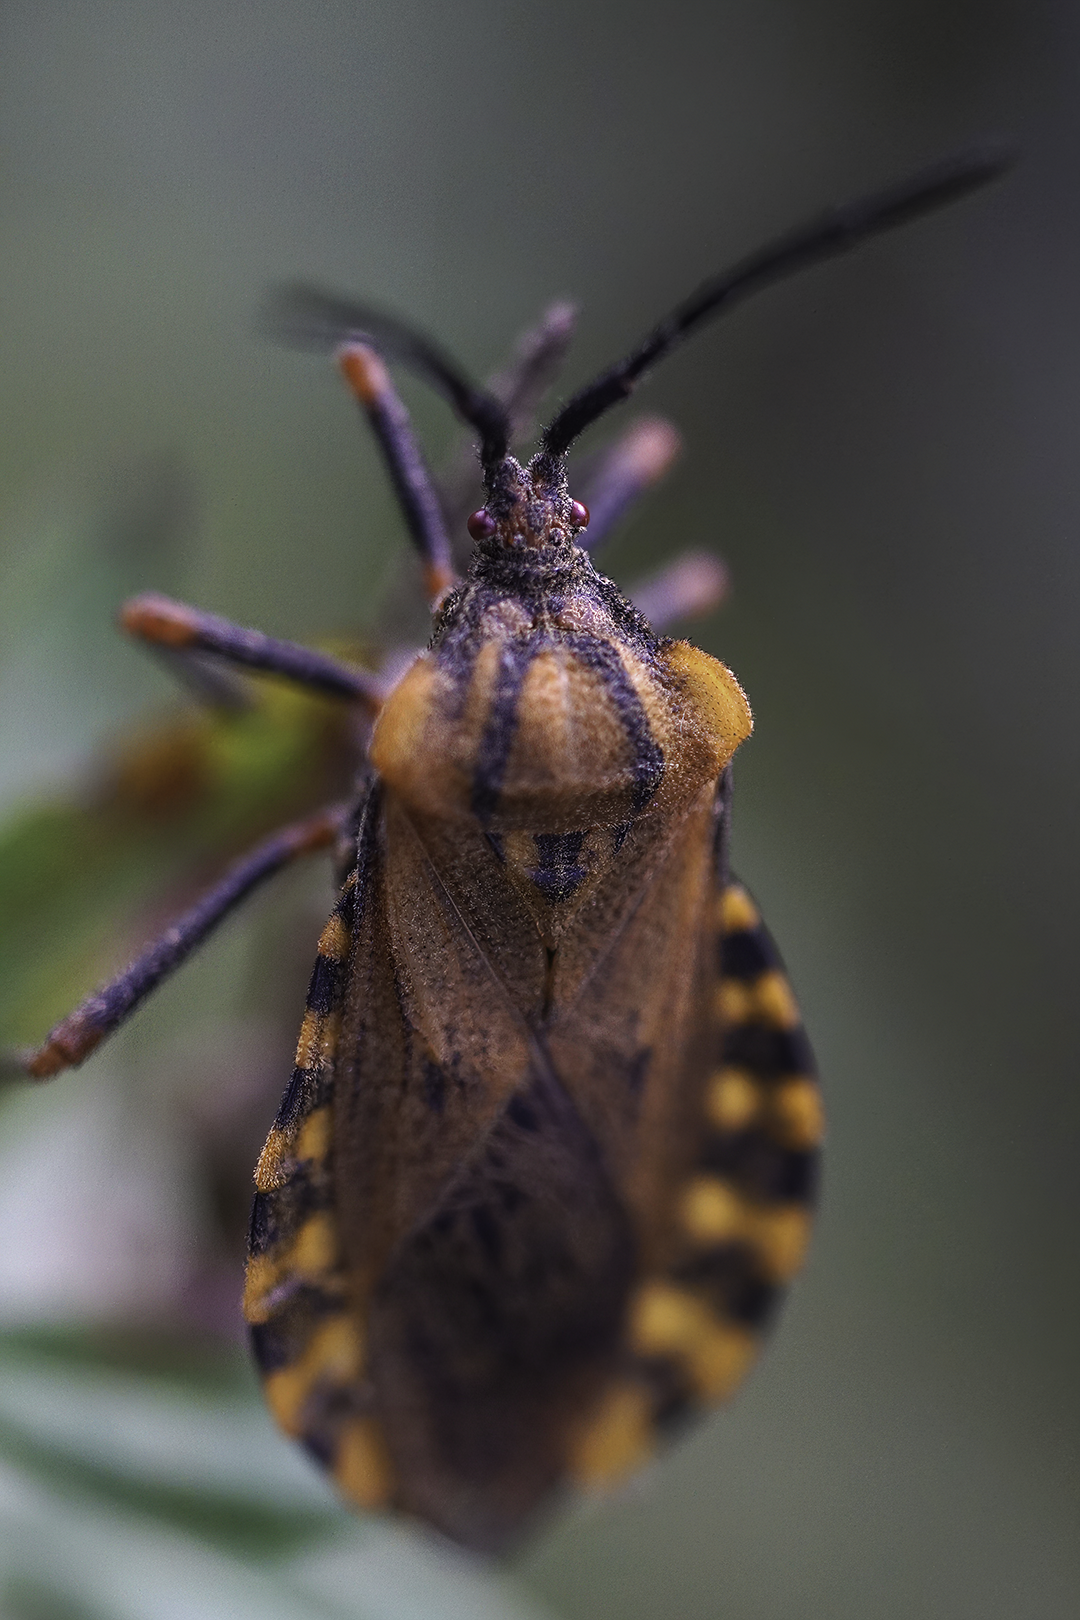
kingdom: Animalia
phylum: Arthropoda
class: Insecta
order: Hemiptera
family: Coreidae
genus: Spartocera
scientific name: Spartocera fusca
